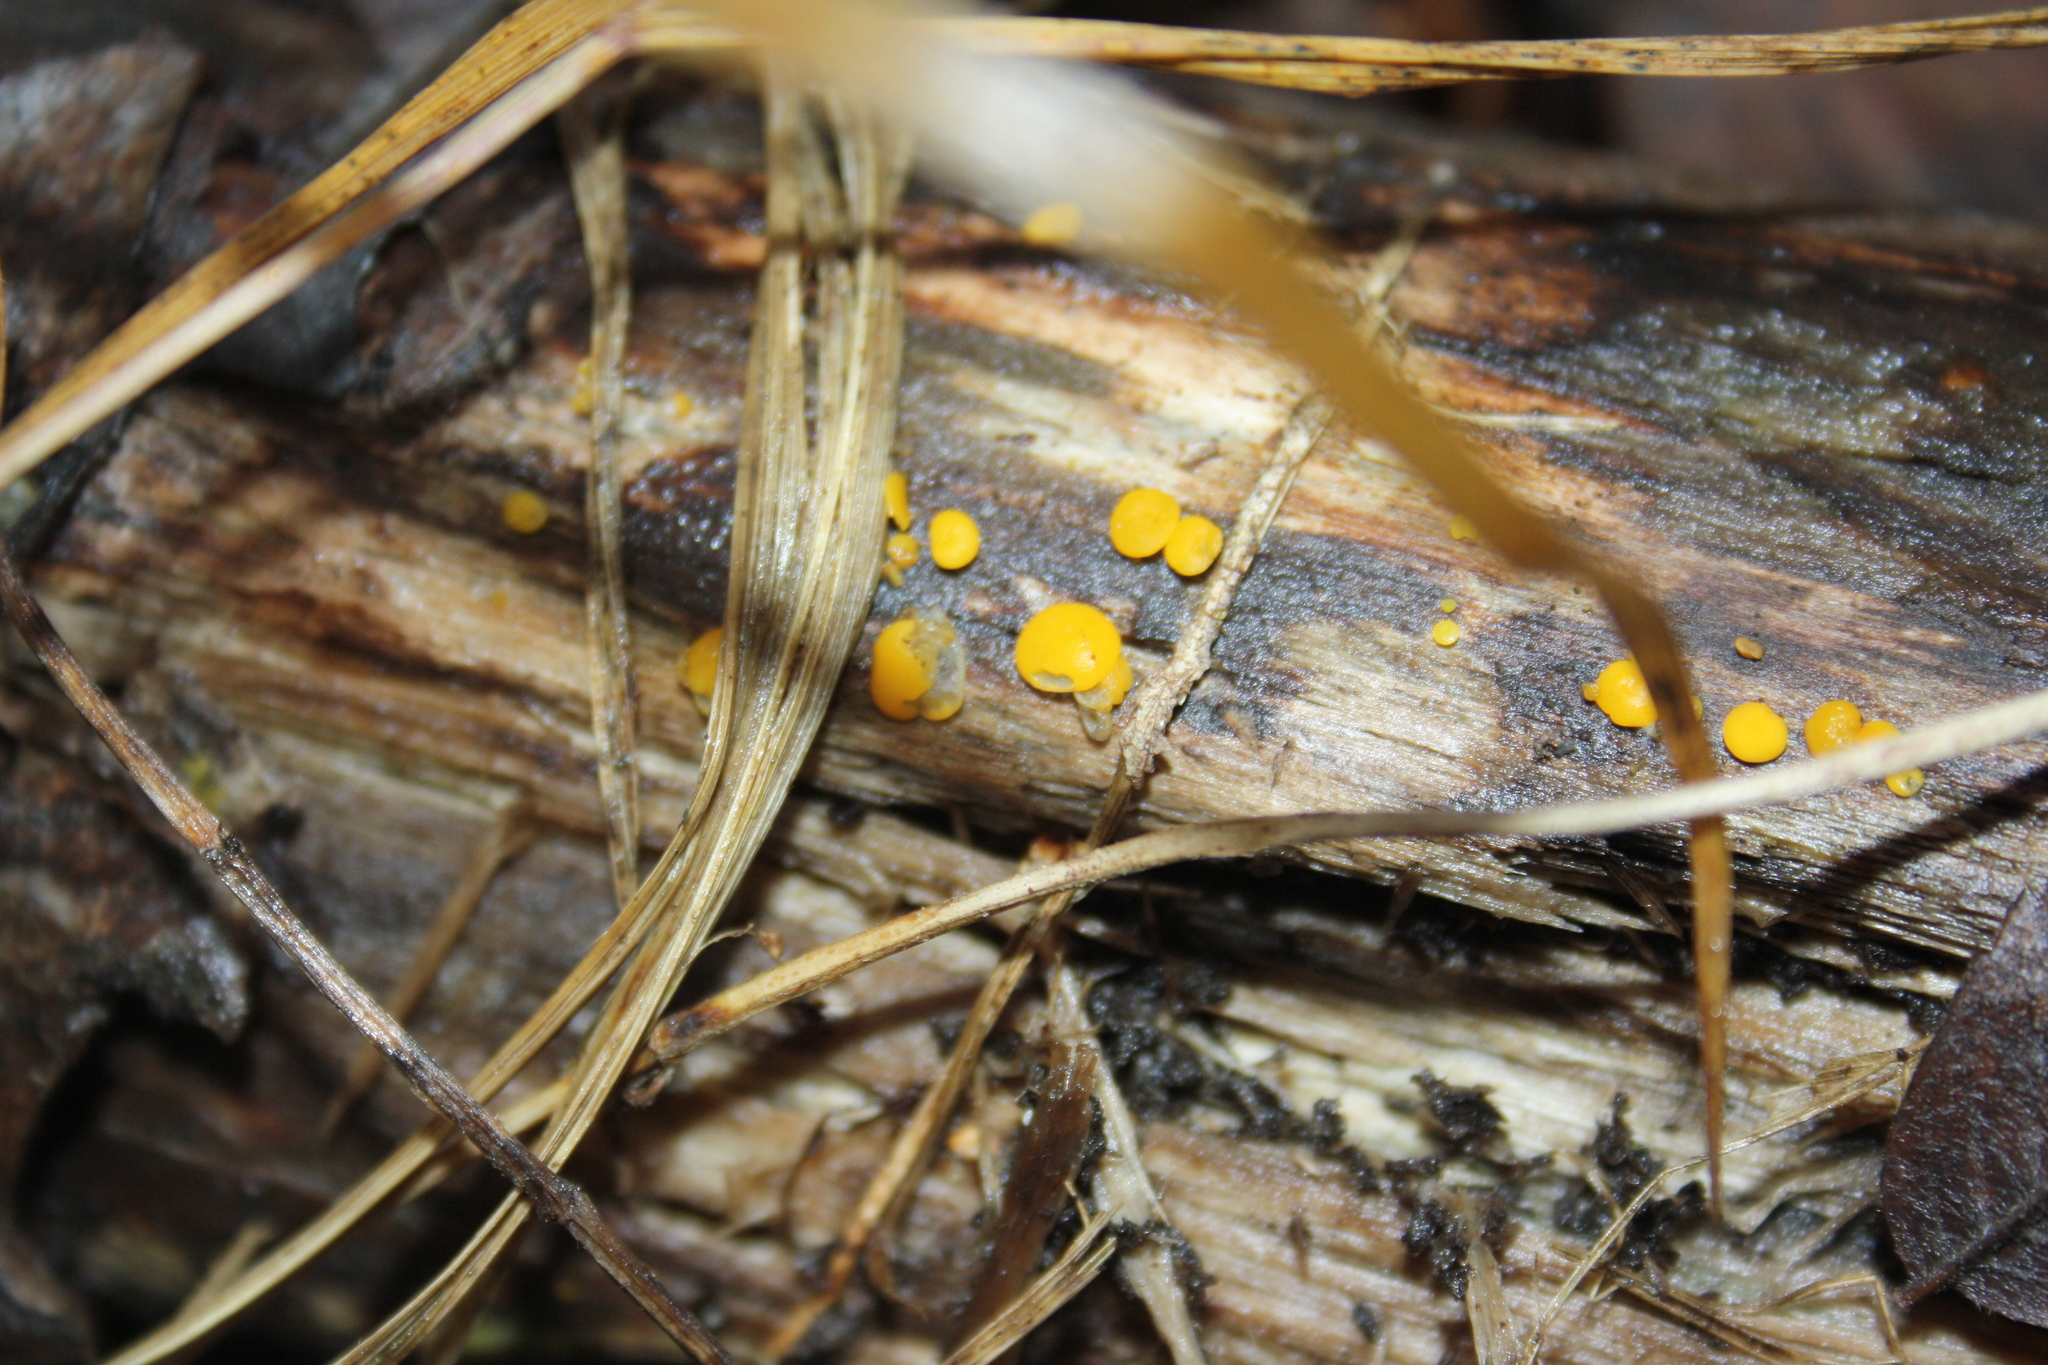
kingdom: Fungi
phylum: Ascomycota
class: Leotiomycetes
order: Helotiales
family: Pezizellaceae
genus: Calycina
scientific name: Calycina citrina
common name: Yellow fairy cups
